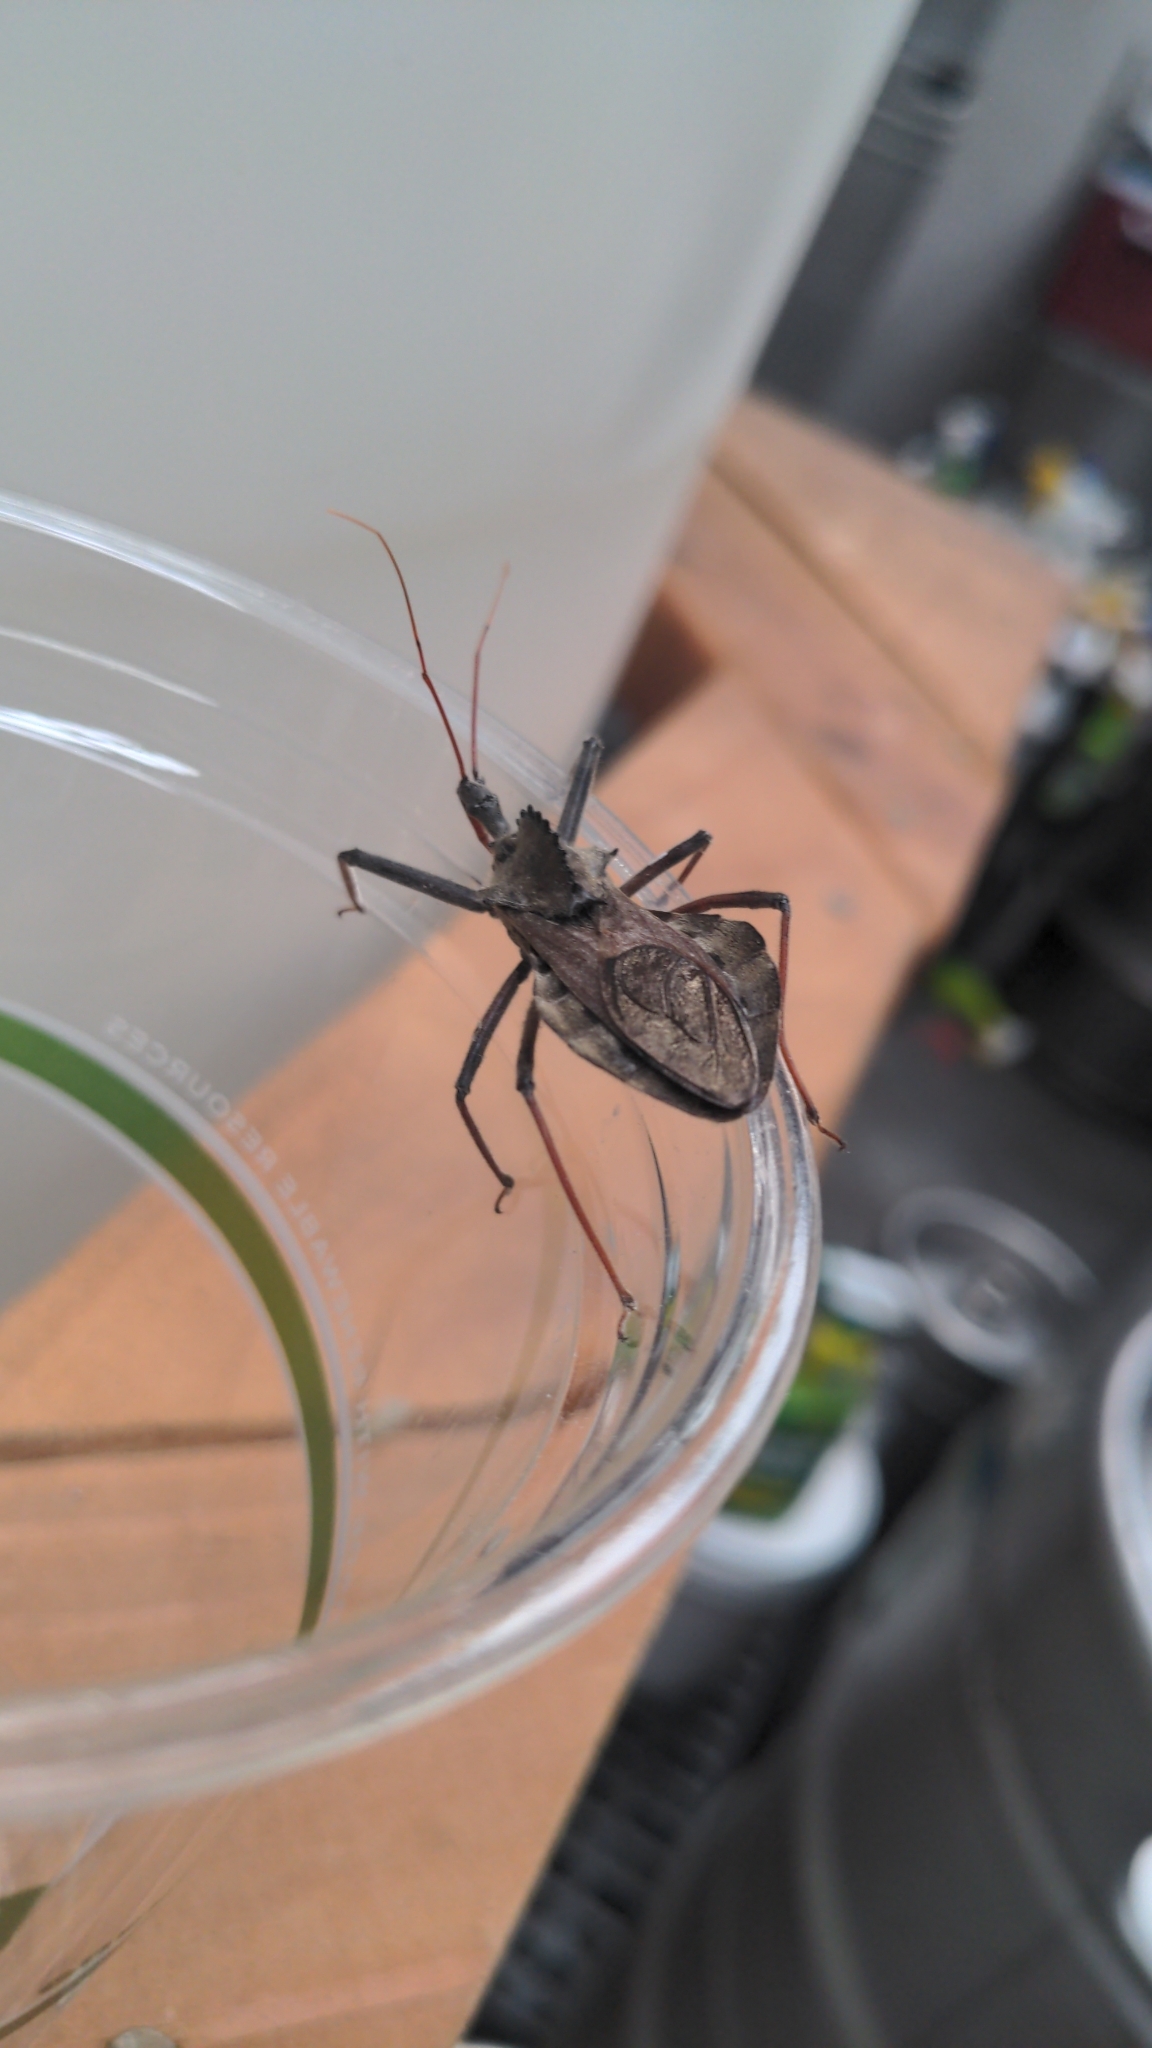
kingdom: Animalia
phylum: Arthropoda
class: Insecta
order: Hemiptera
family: Reduviidae
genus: Arilus
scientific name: Arilus cristatus
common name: North american wheel bug
